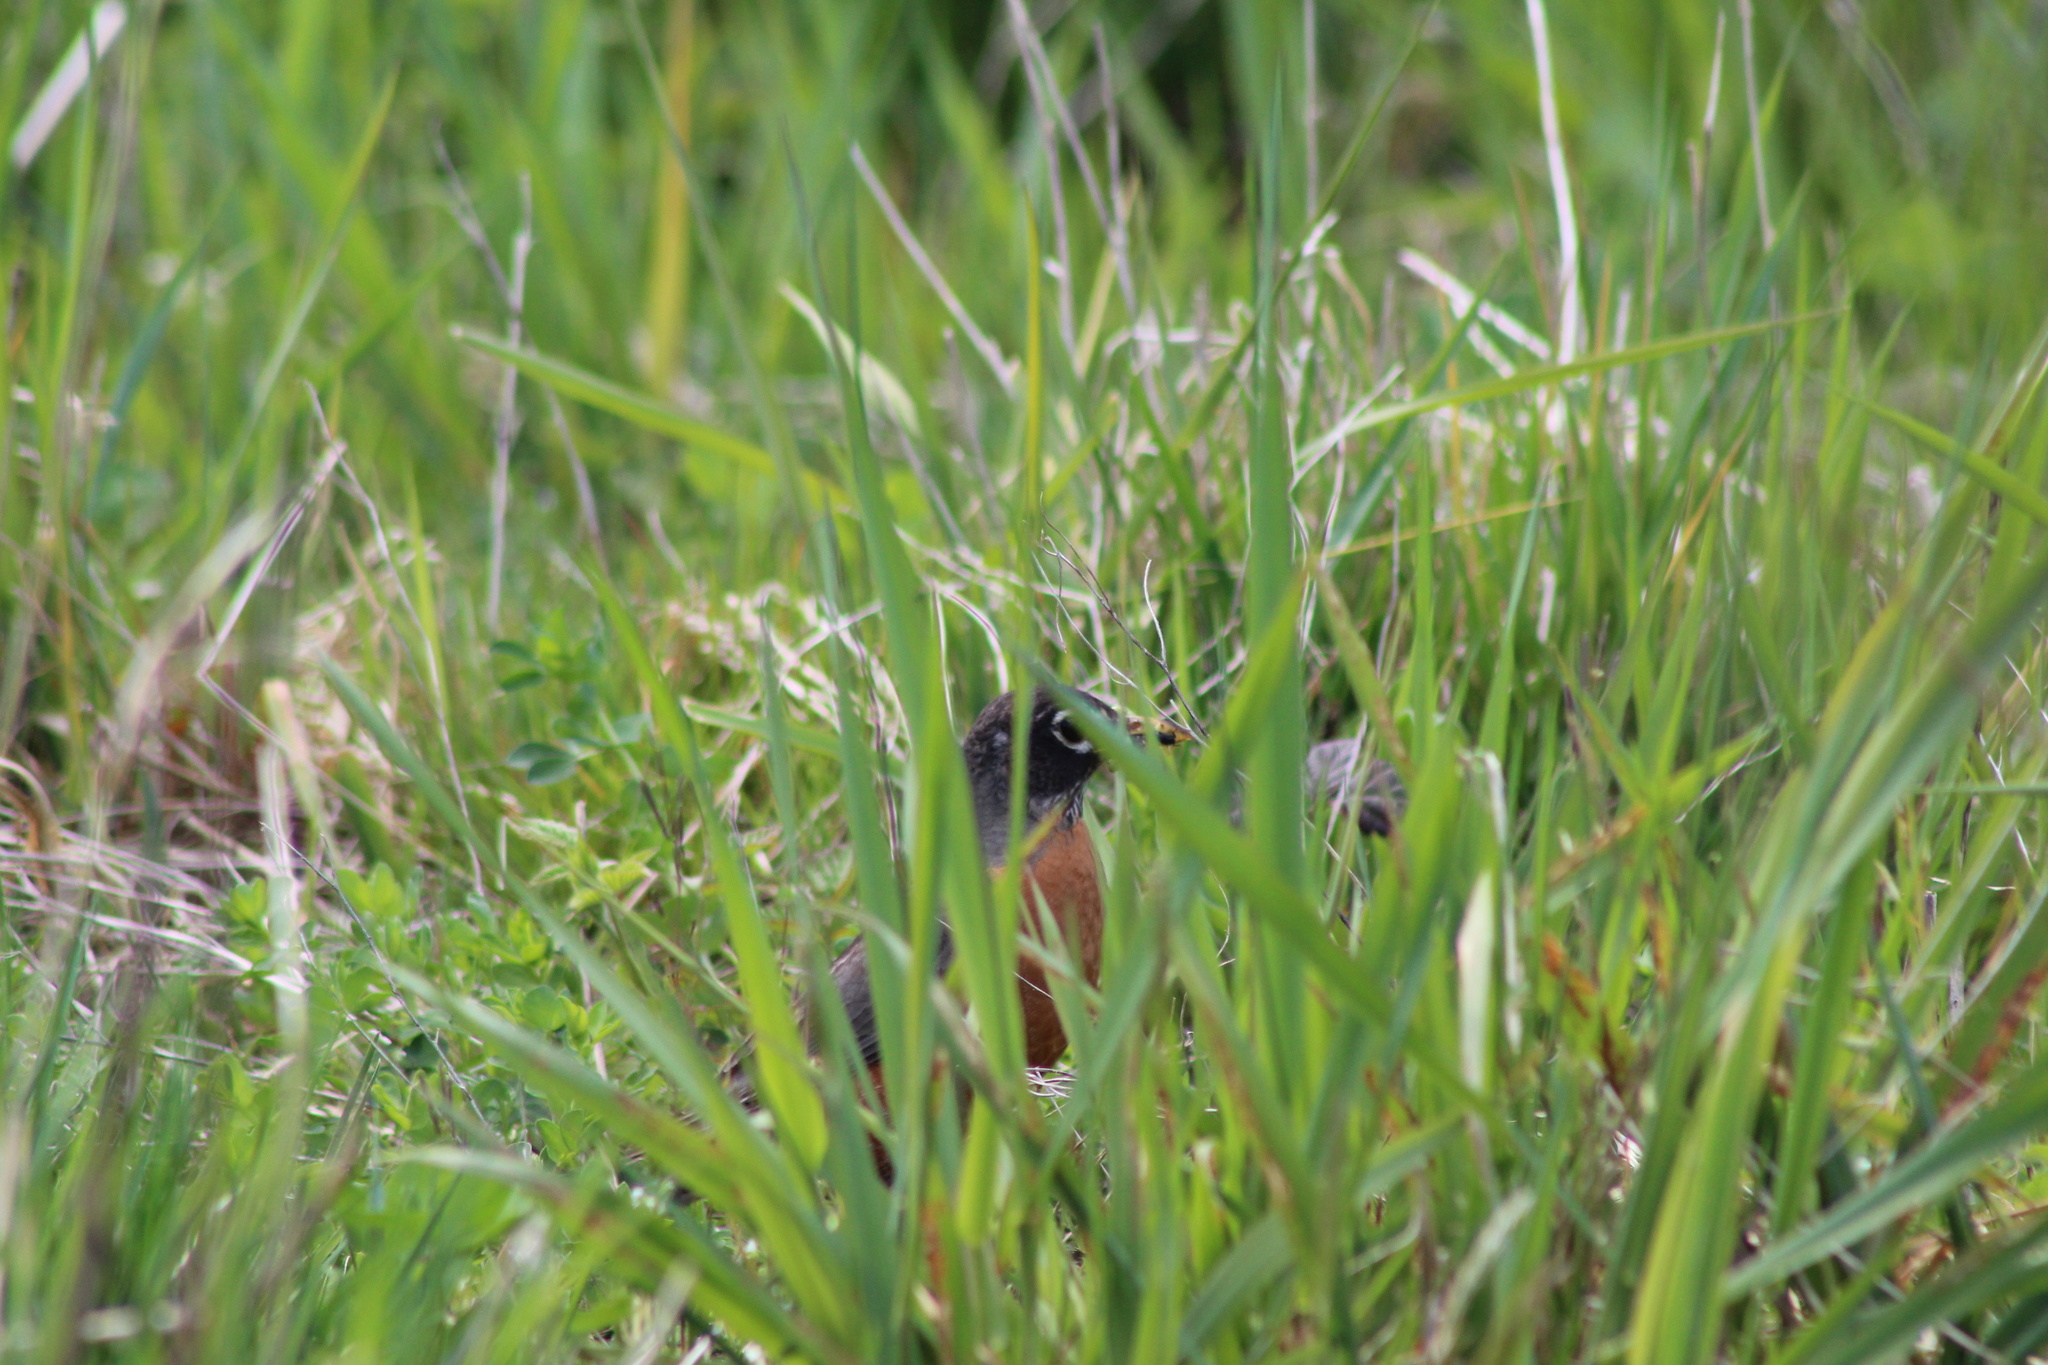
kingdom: Animalia
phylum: Chordata
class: Aves
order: Passeriformes
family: Turdidae
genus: Turdus
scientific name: Turdus migratorius
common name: American robin
